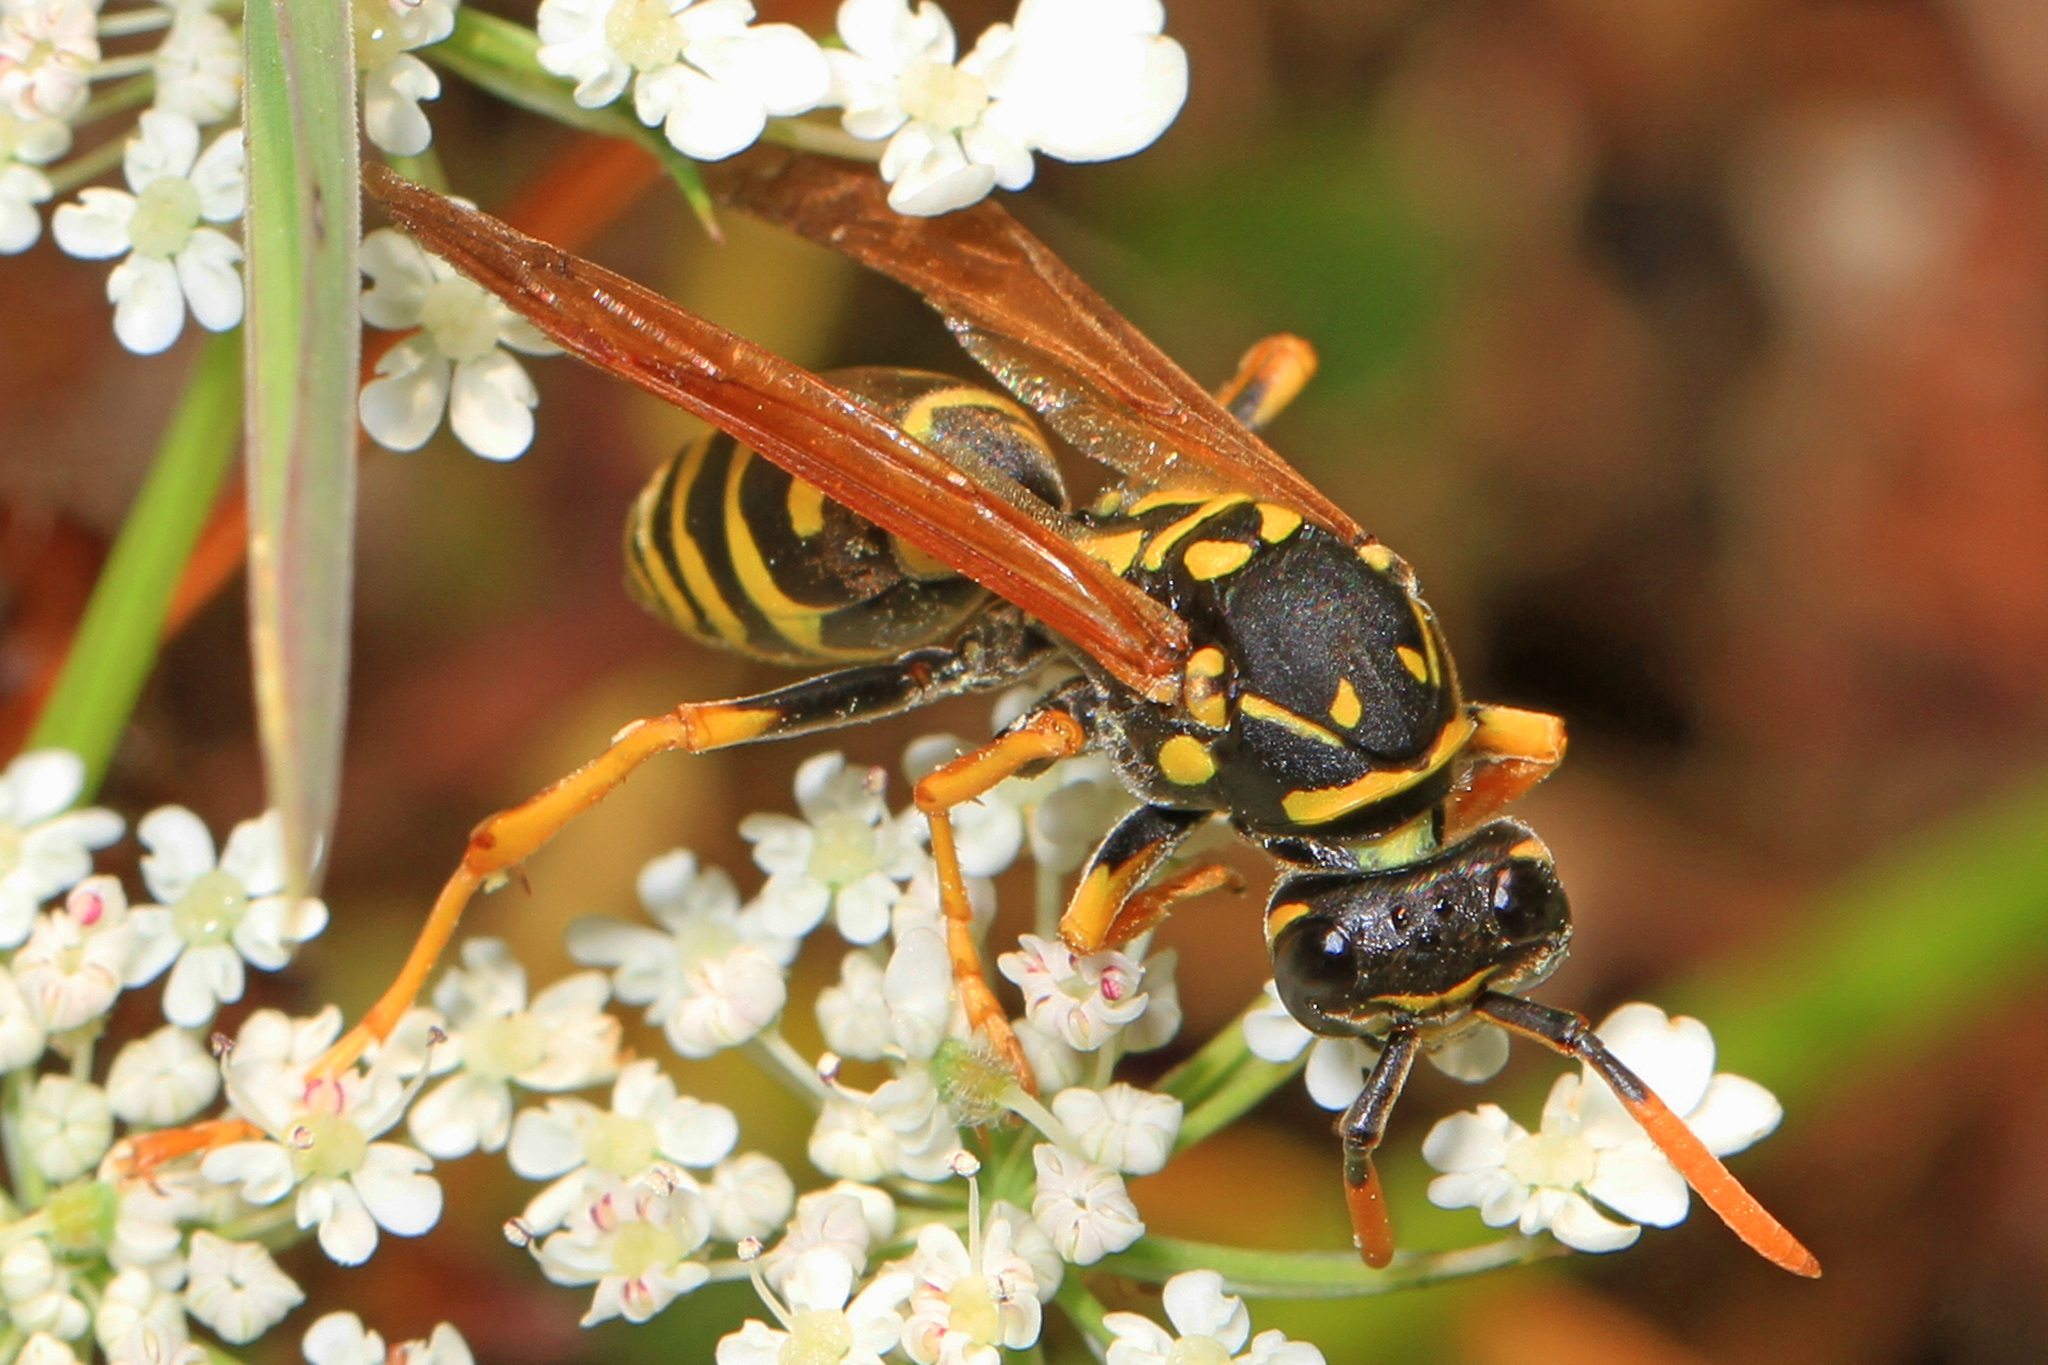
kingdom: Animalia
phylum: Arthropoda
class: Insecta
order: Hymenoptera
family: Eumenidae
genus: Polistes
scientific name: Polistes dominula
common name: Paper wasp
